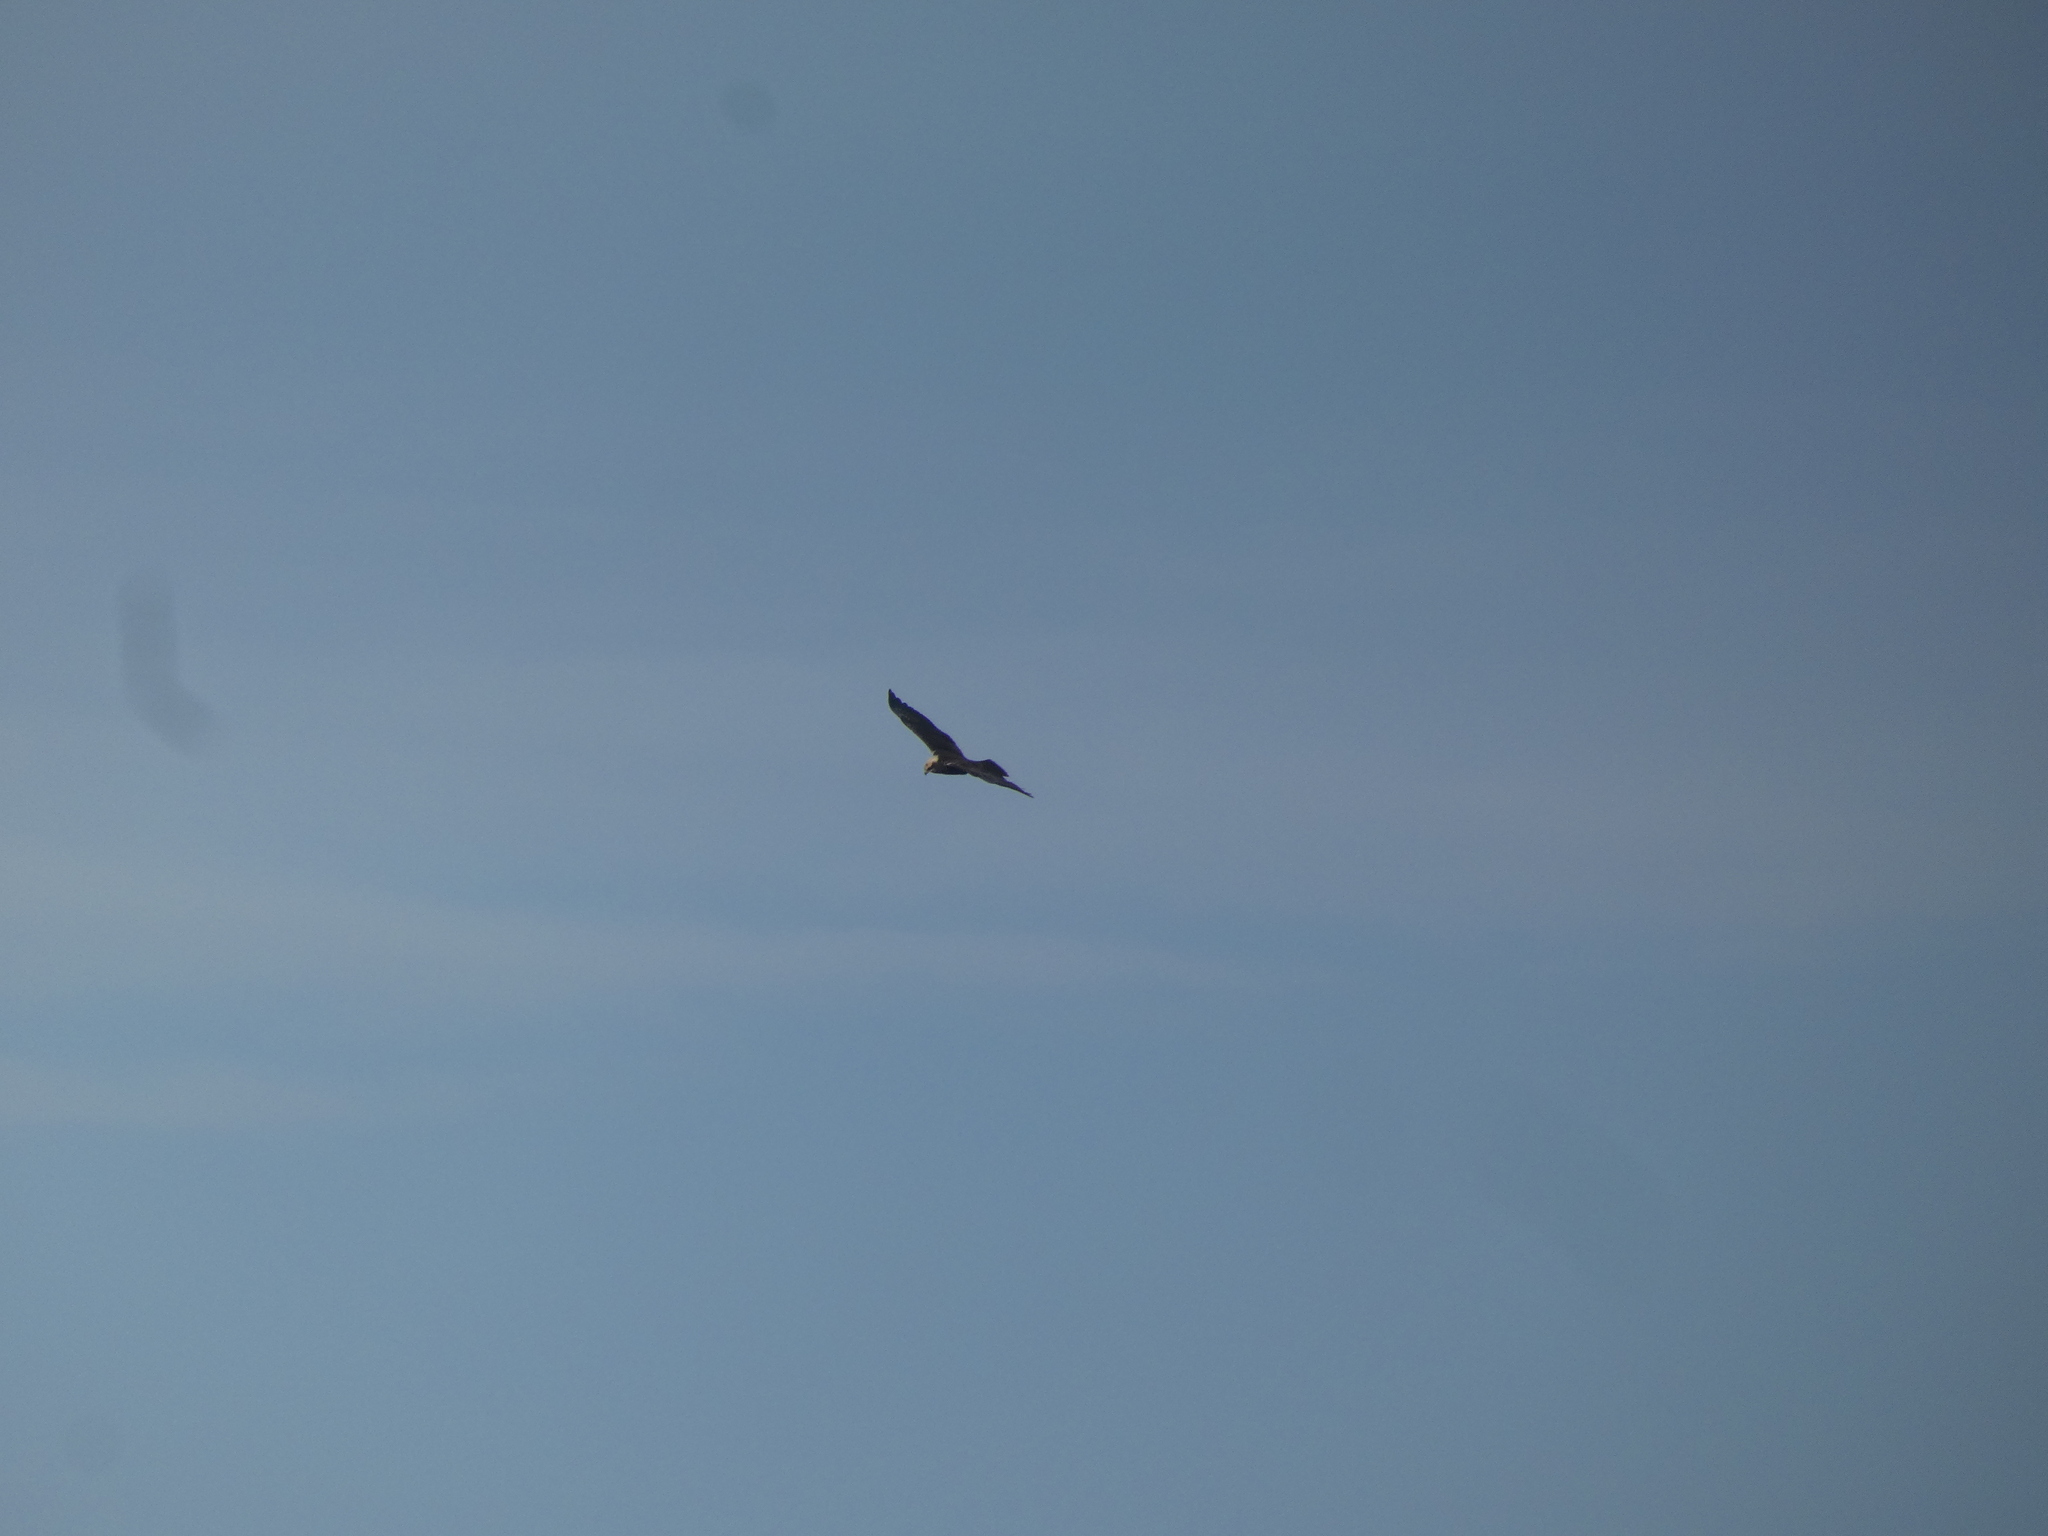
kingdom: Animalia
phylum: Chordata
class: Aves
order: Accipitriformes
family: Accipitridae
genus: Circus
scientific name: Circus aeruginosus
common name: Western marsh harrier
